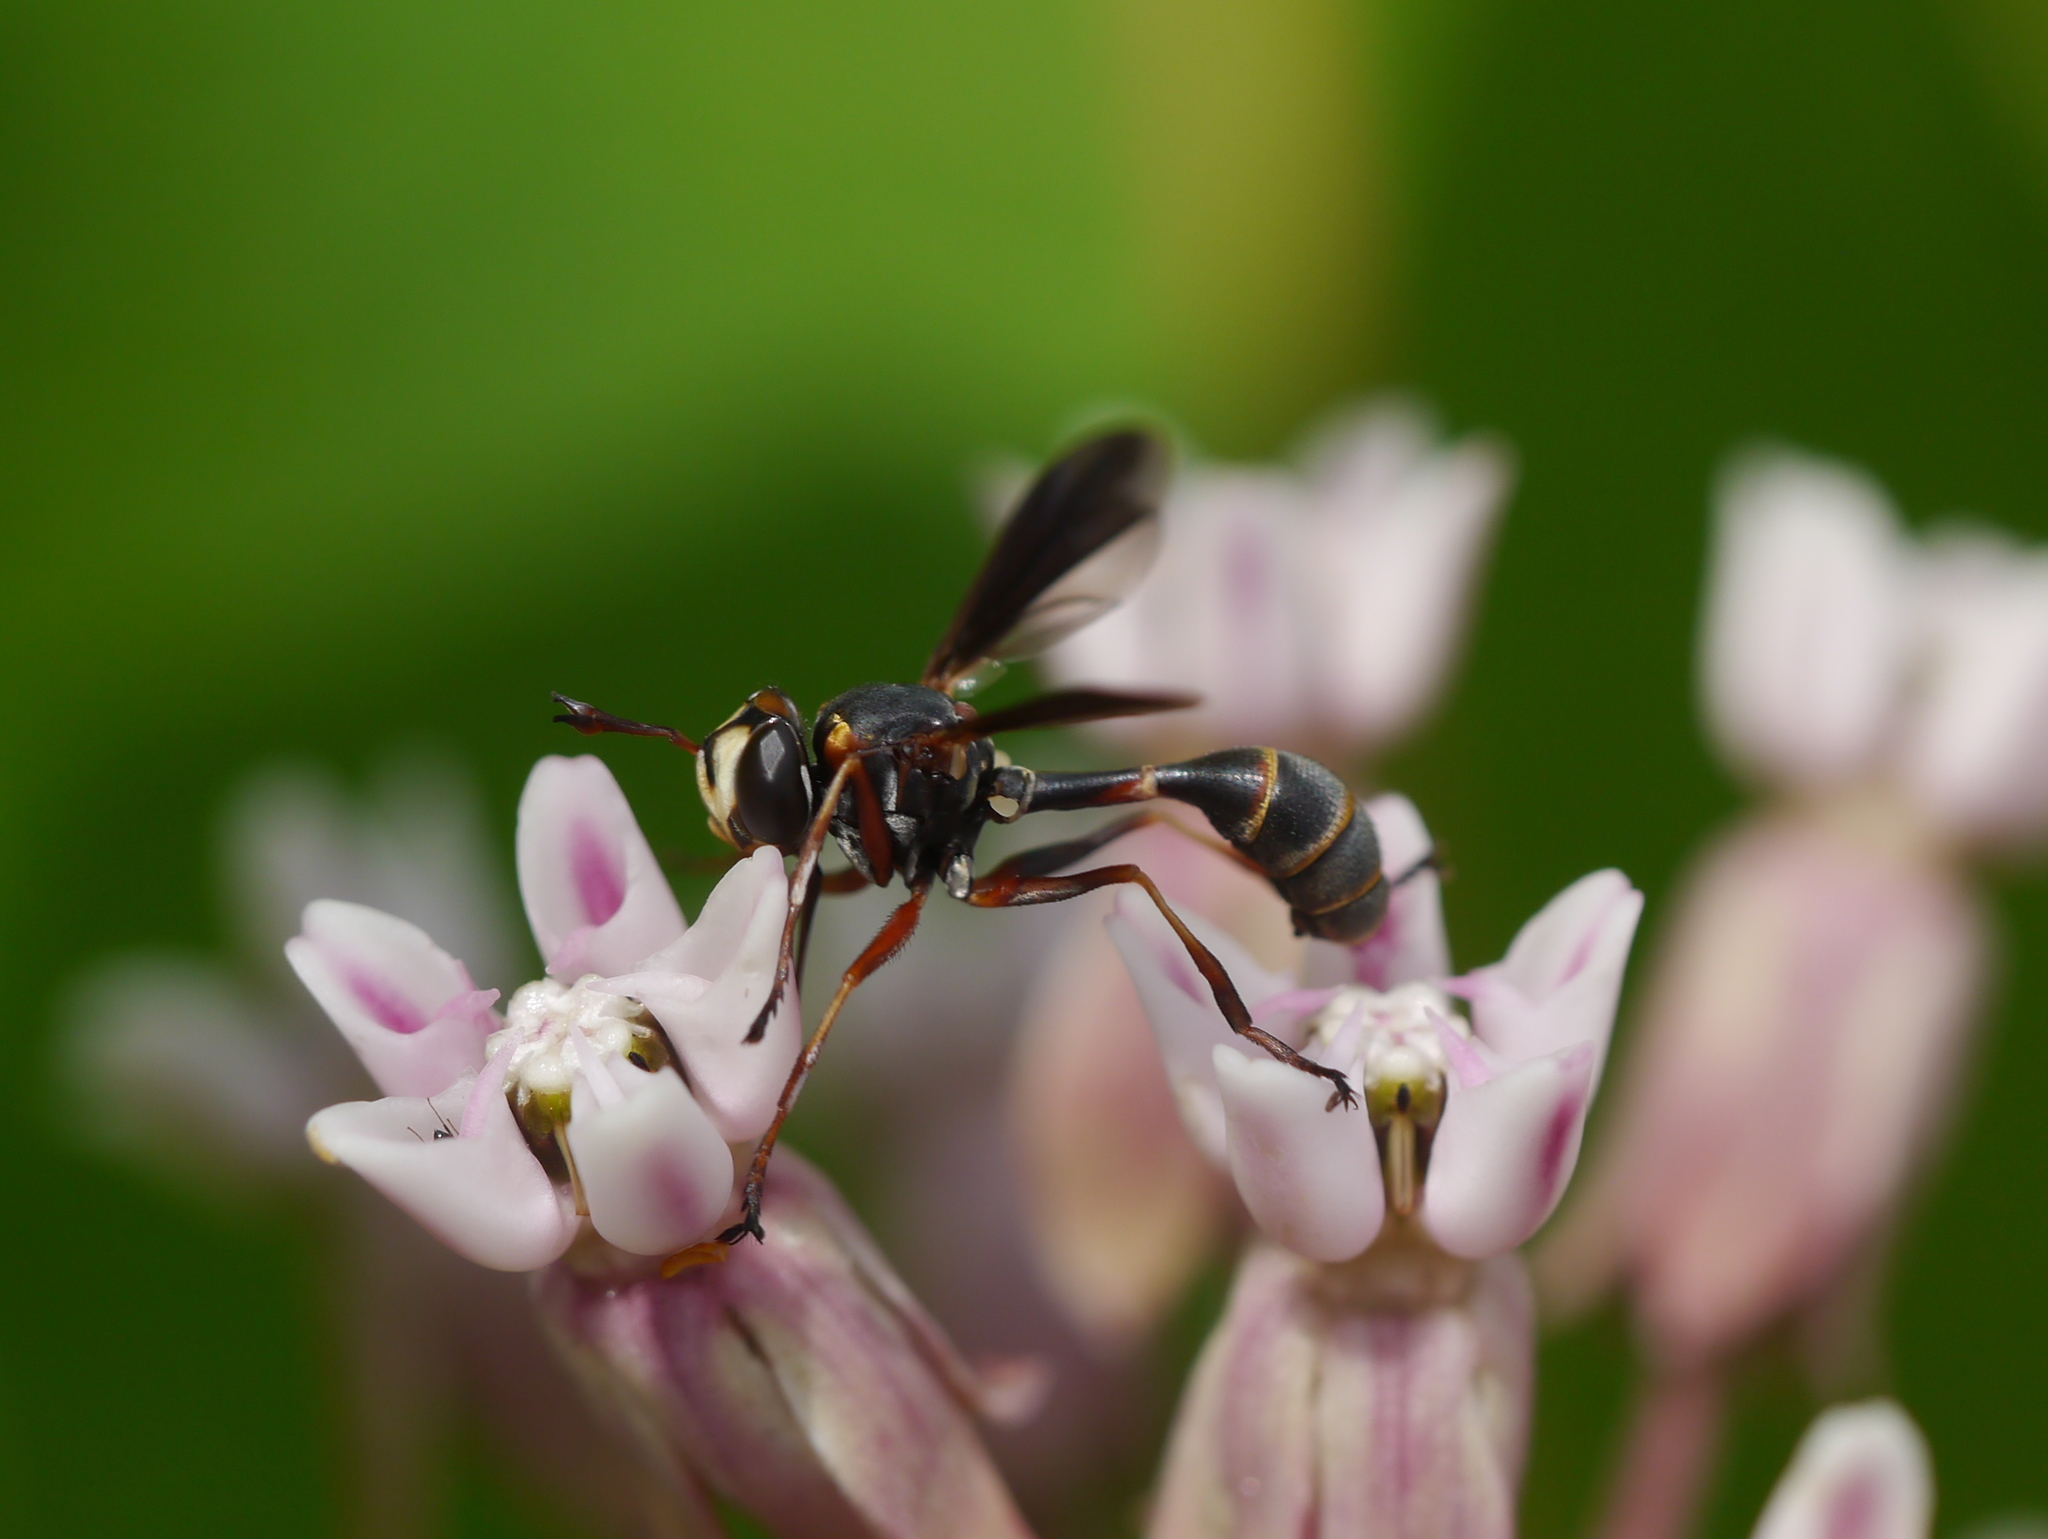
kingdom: Animalia
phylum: Arthropoda
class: Insecta
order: Diptera
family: Conopidae
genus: Physocephala
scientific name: Physocephala sagittaria
